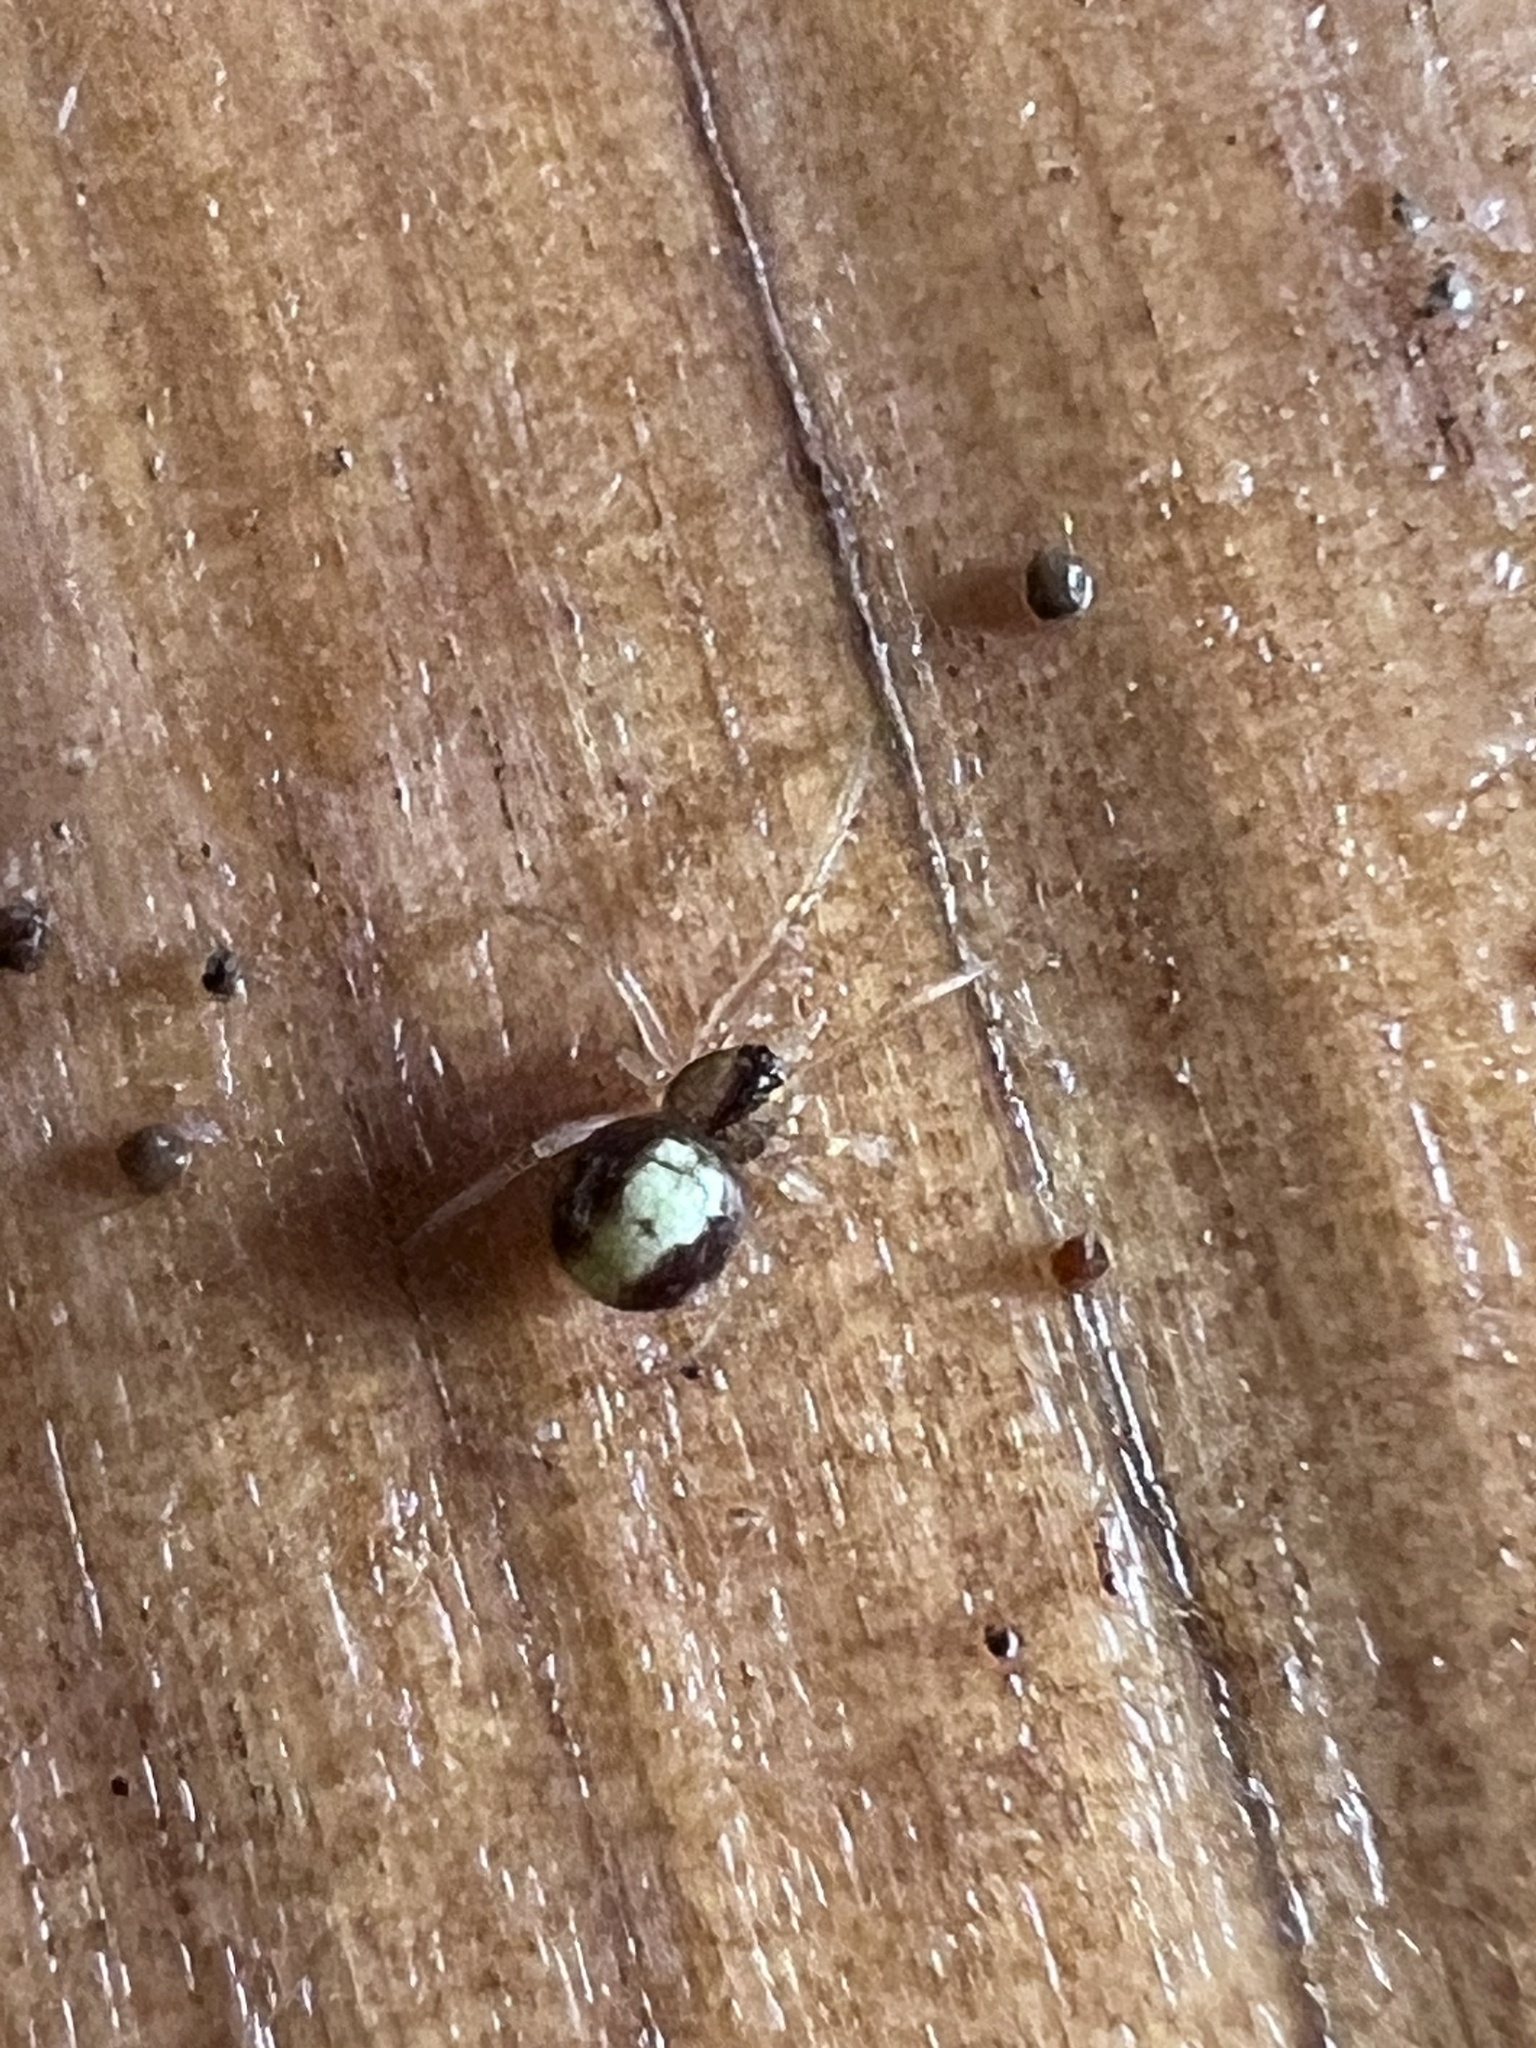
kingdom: Animalia
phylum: Arthropoda
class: Arachnida
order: Araneae
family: Theridiidae
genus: Neottiura
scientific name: Neottiura bimaculata
